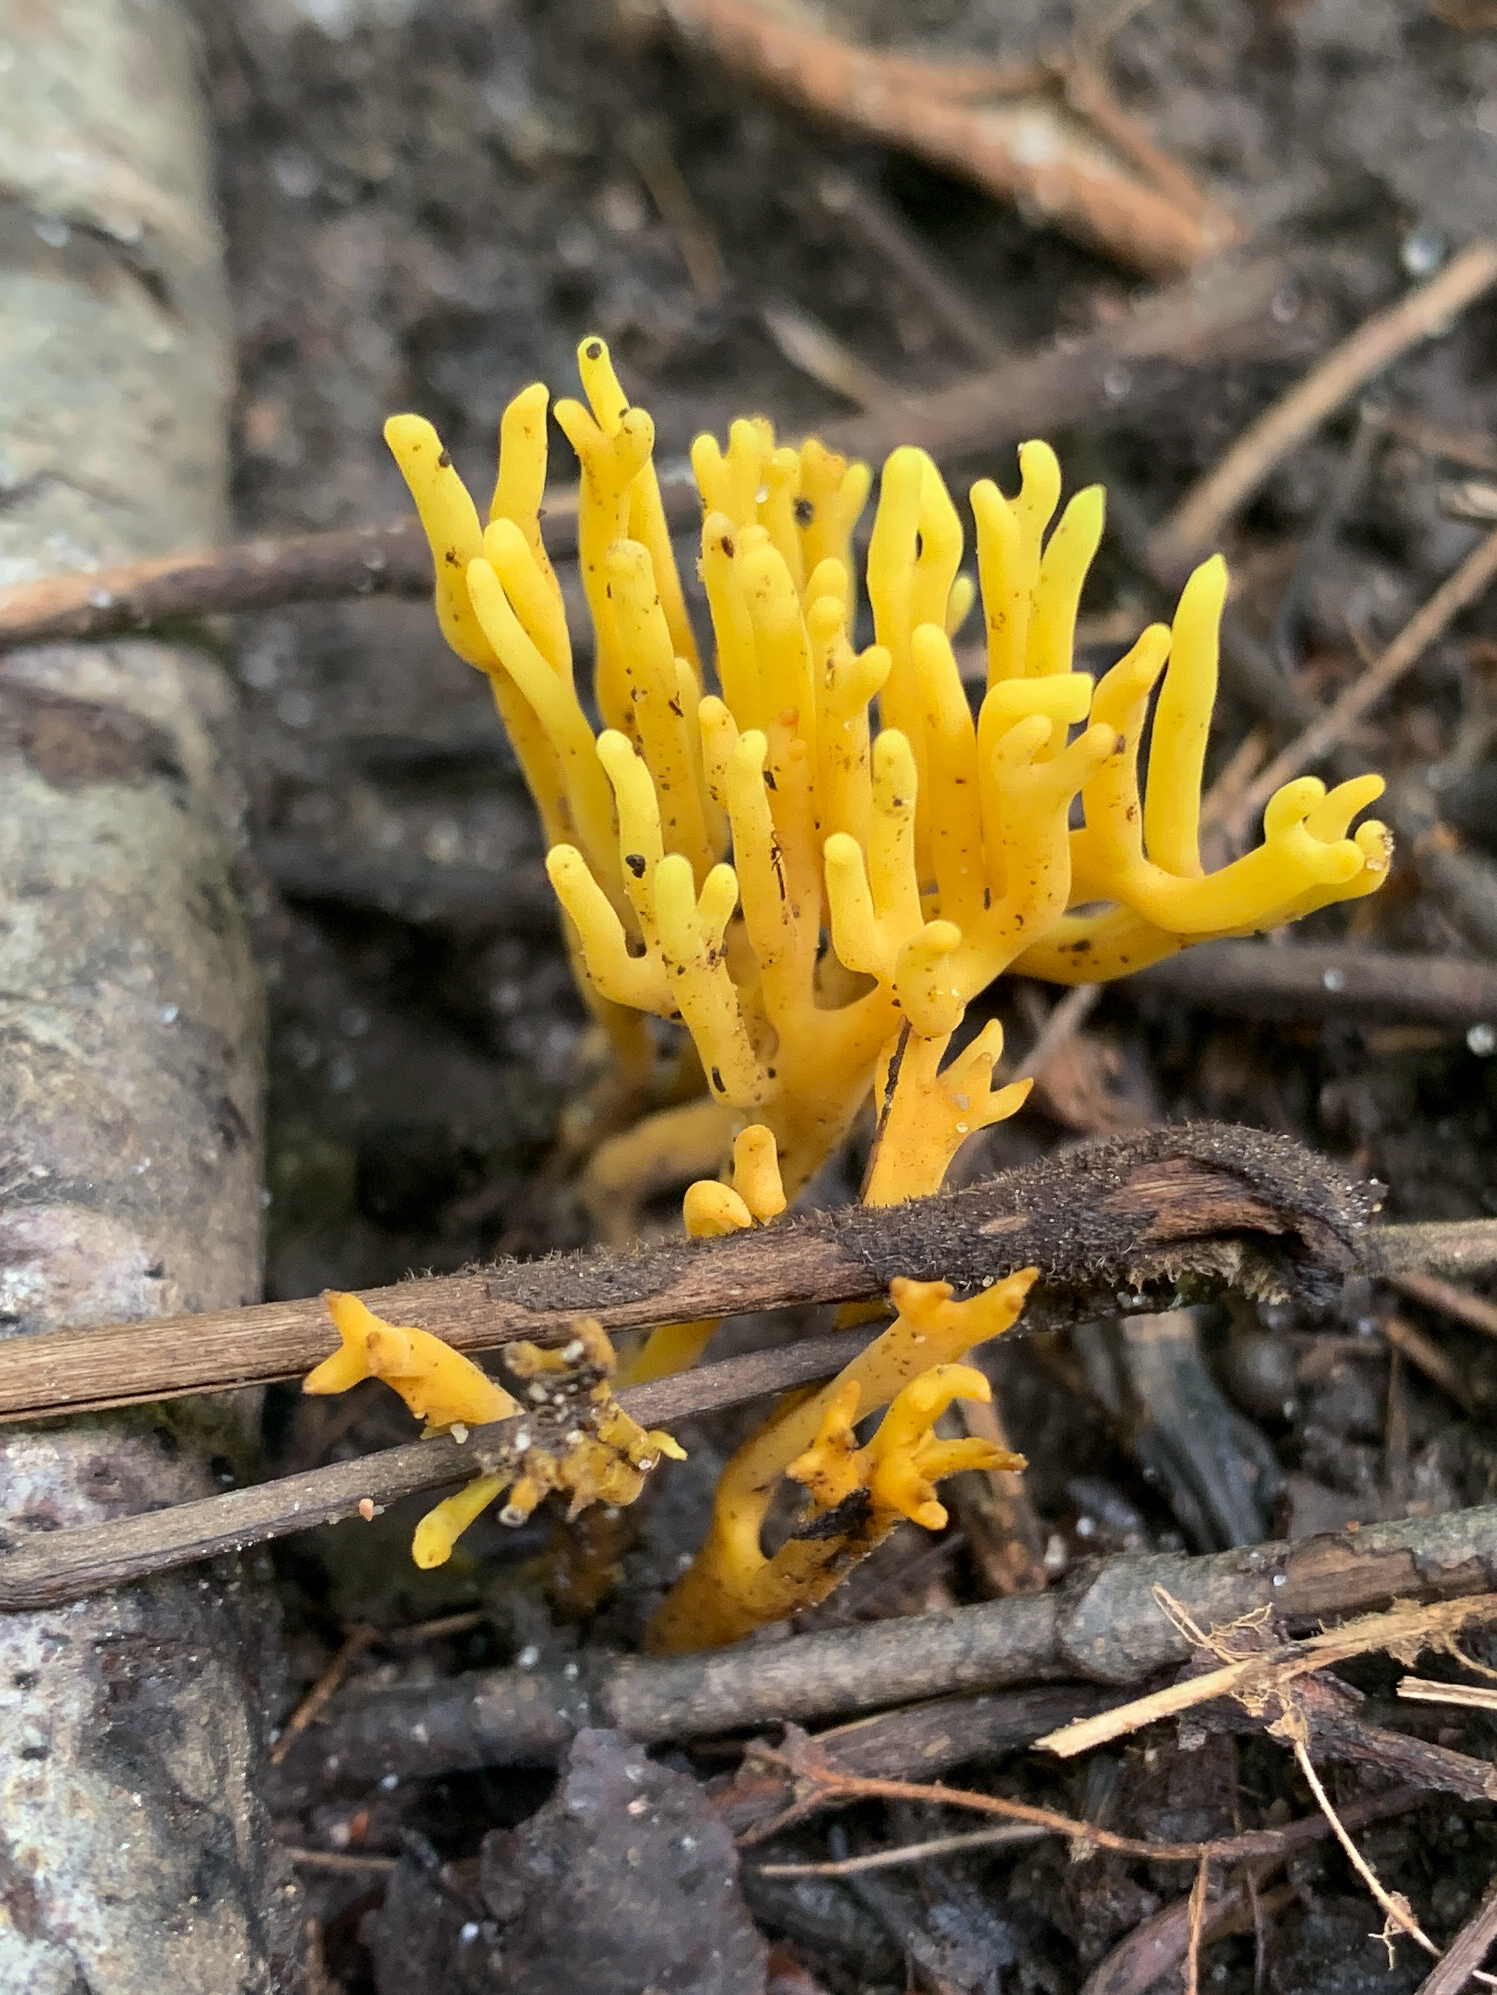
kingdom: Fungi
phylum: Basidiomycota
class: Agaricomycetes
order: Agaricales
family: Clavariaceae
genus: Clavulinopsis
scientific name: Clavulinopsis corniculata
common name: Meadow coral
